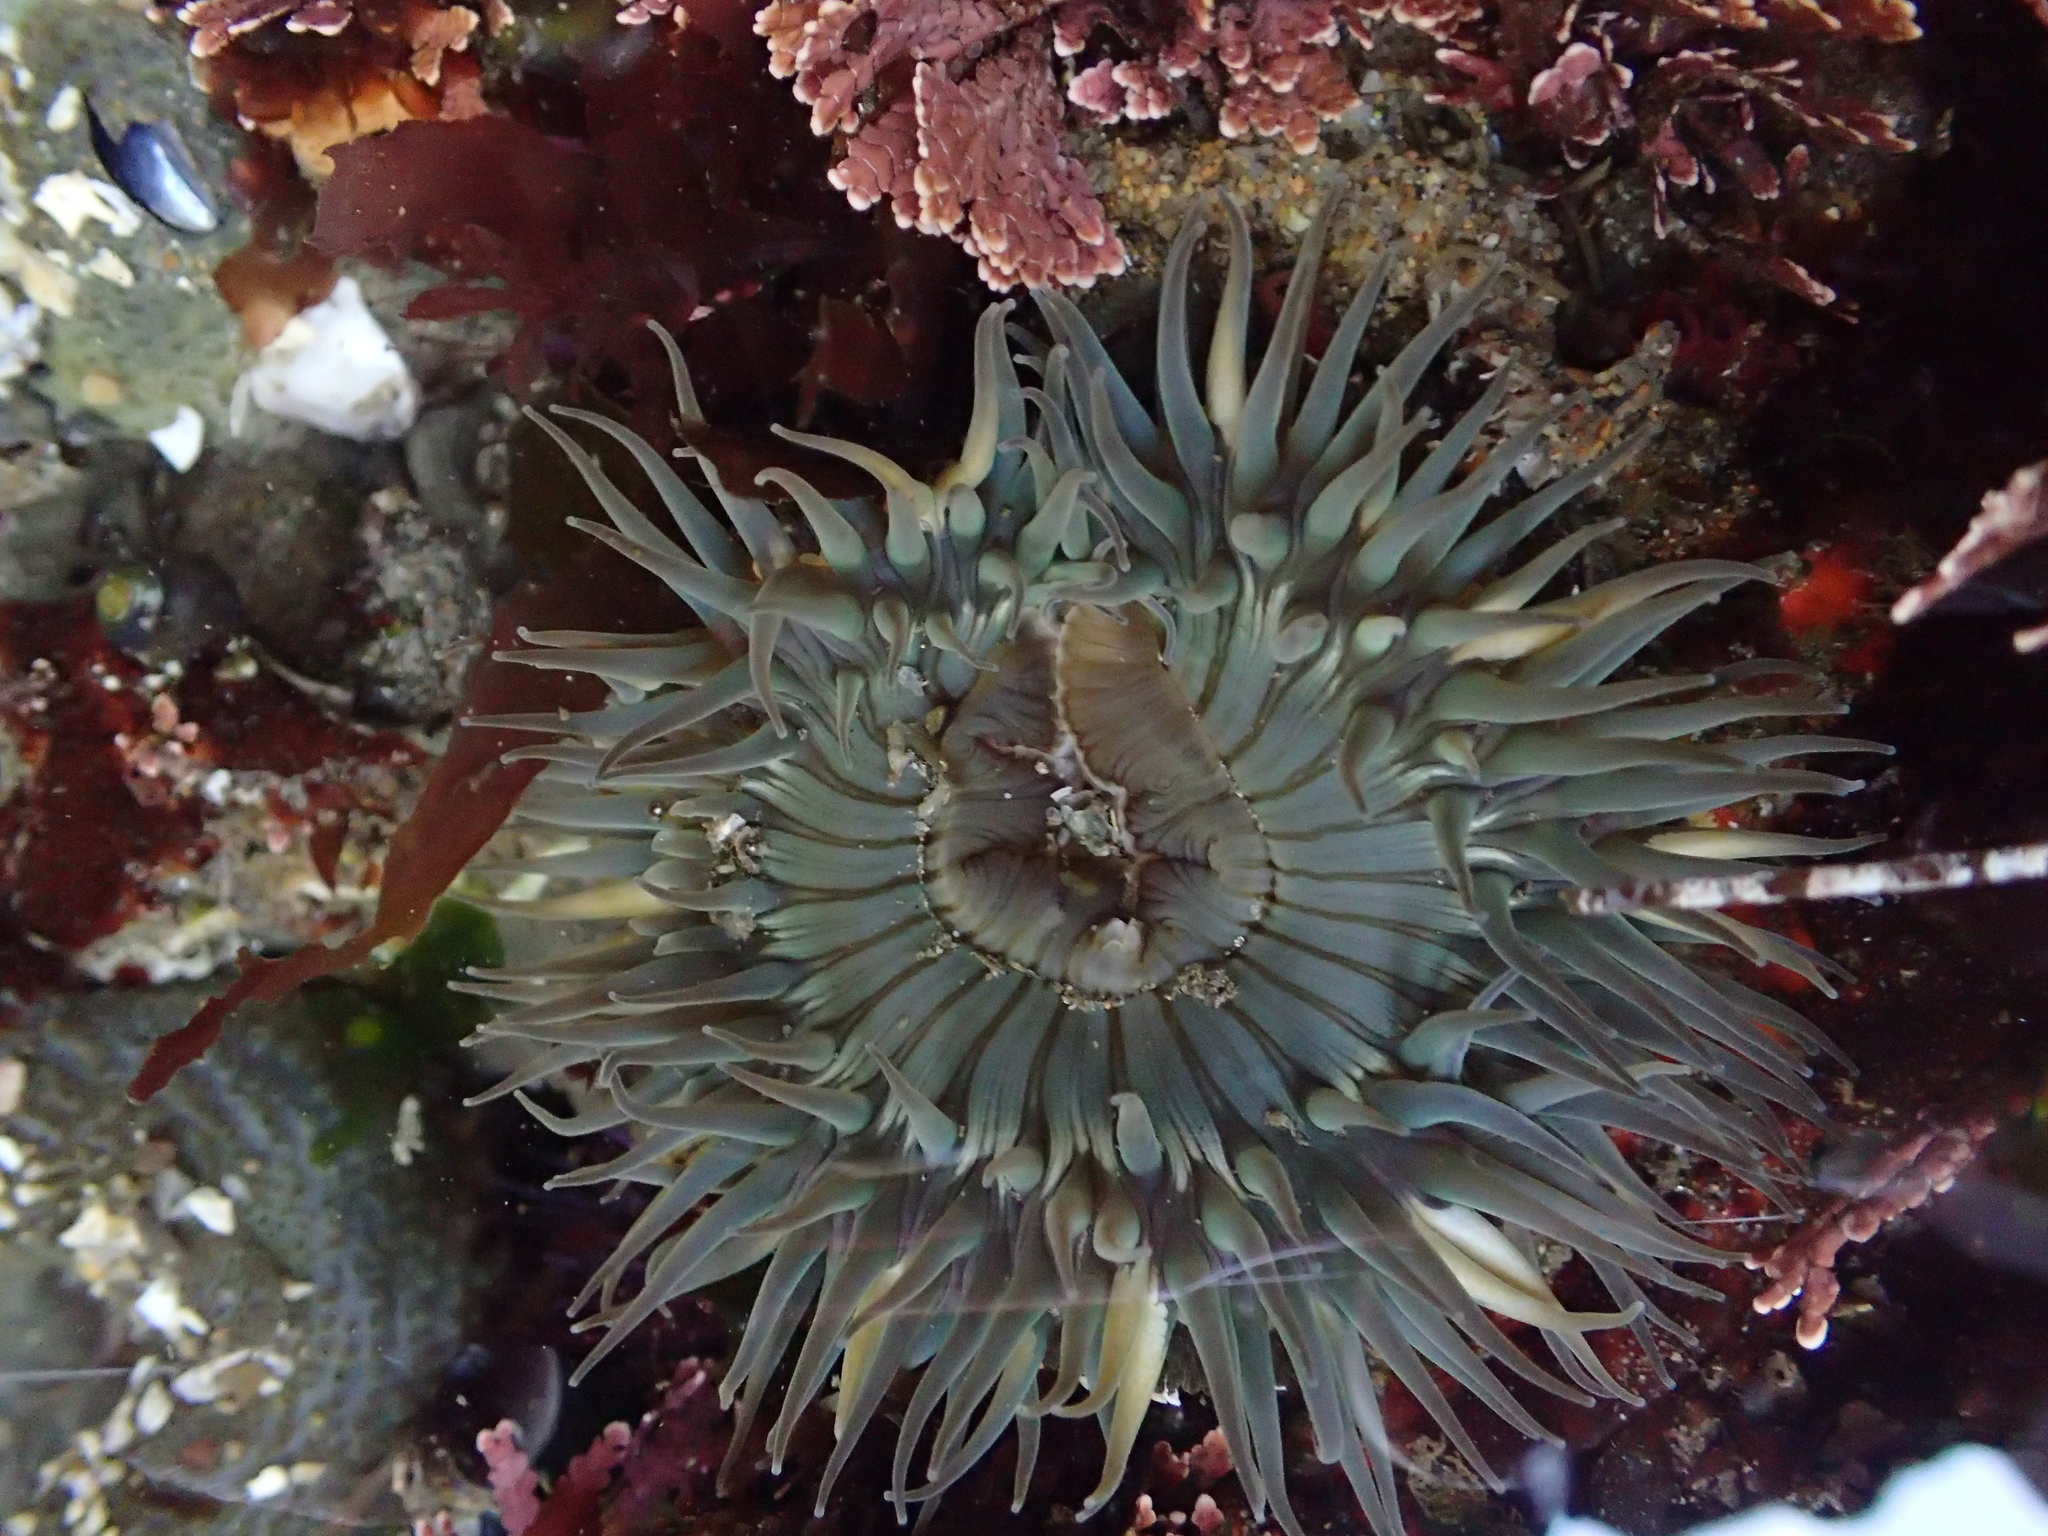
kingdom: Animalia
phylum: Cnidaria
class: Anthozoa
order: Actiniaria
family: Actiniidae
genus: Anthopleura
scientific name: Anthopleura sola
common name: Sun anemone
